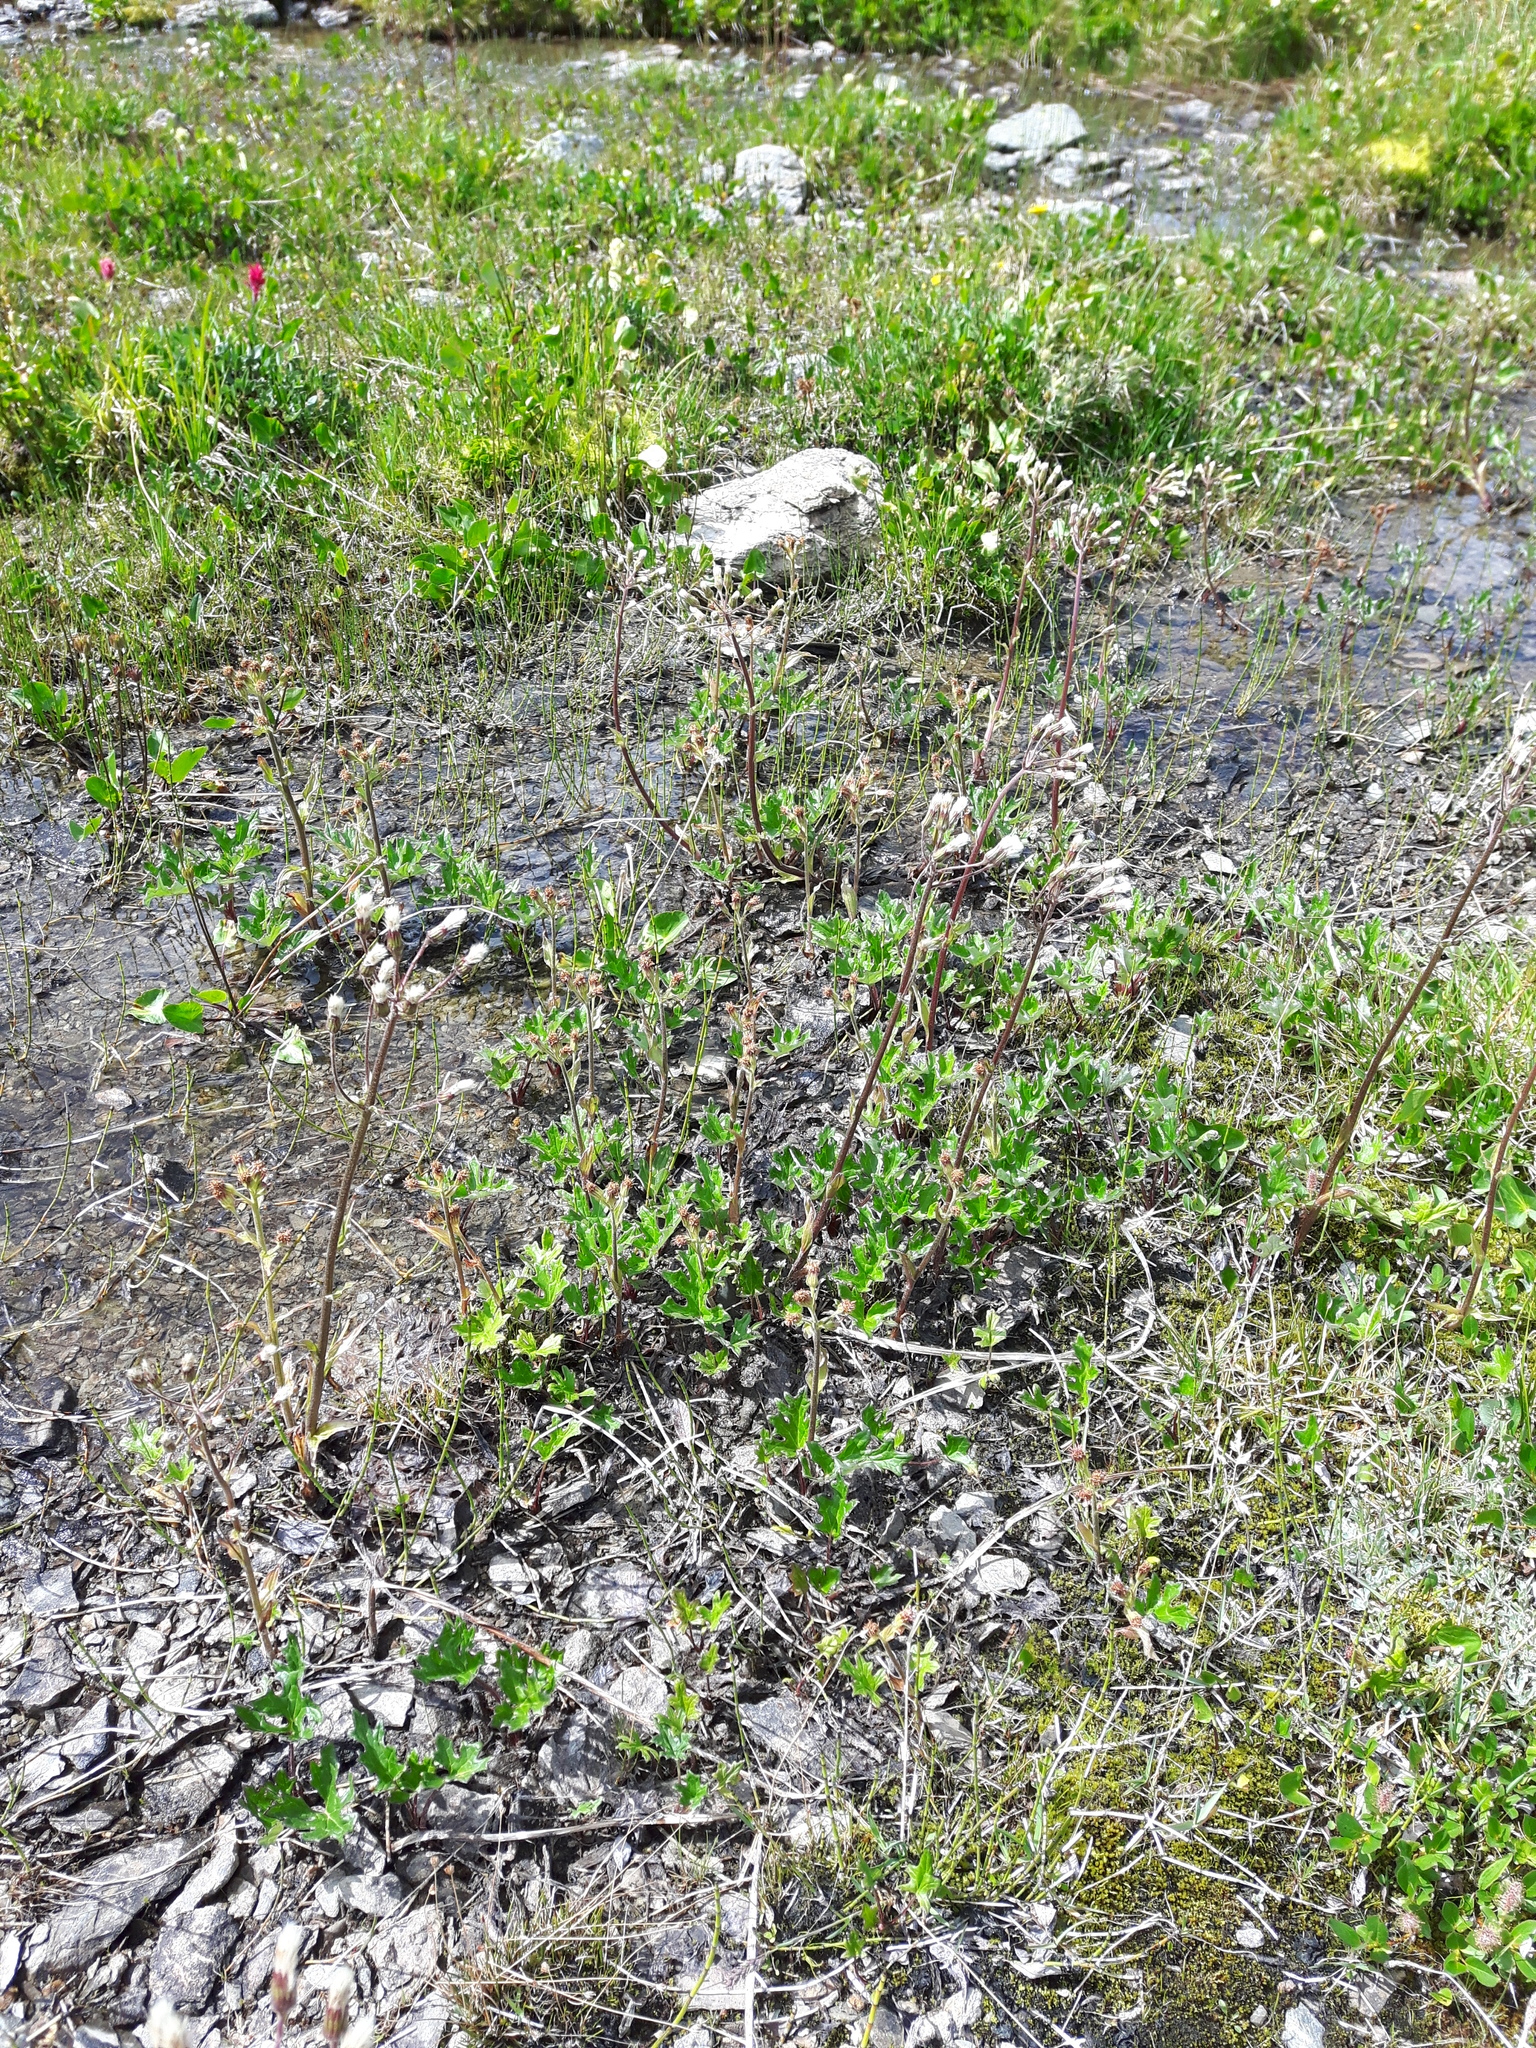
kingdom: Plantae
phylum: Tracheophyta
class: Magnoliopsida
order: Asterales
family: Asteraceae
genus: Petasites
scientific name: Petasites frigidus
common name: Arctic butterbur
